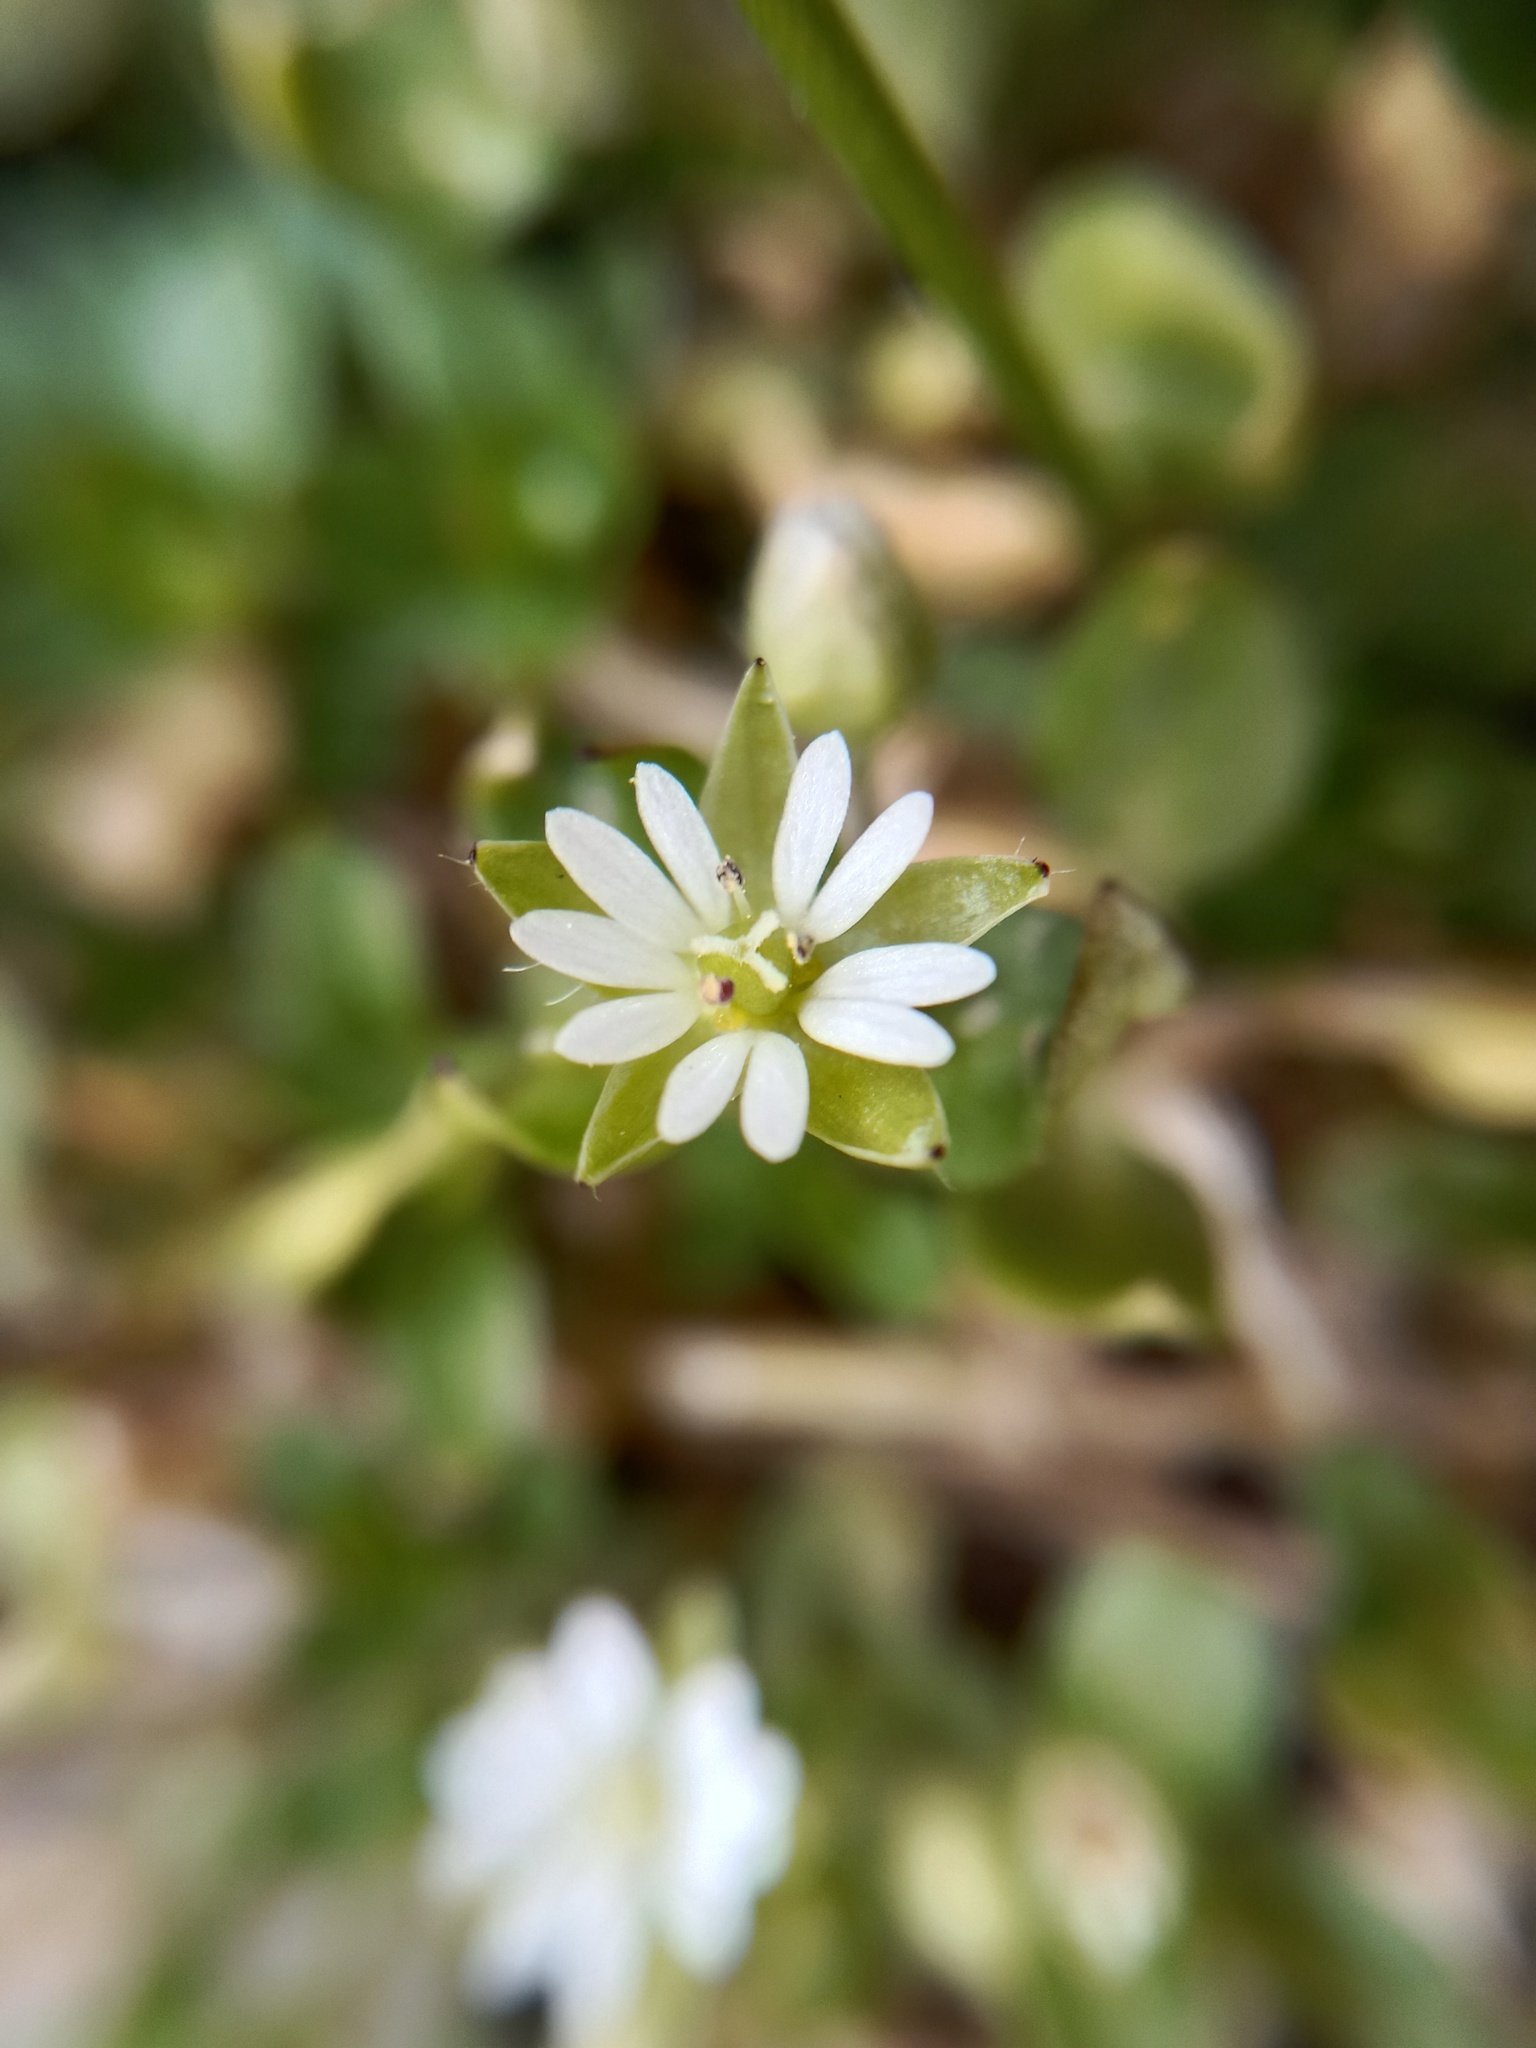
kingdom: Plantae
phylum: Tracheophyta
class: Magnoliopsida
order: Caryophyllales
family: Caryophyllaceae
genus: Stellaria
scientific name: Stellaria media
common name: Common chickweed
